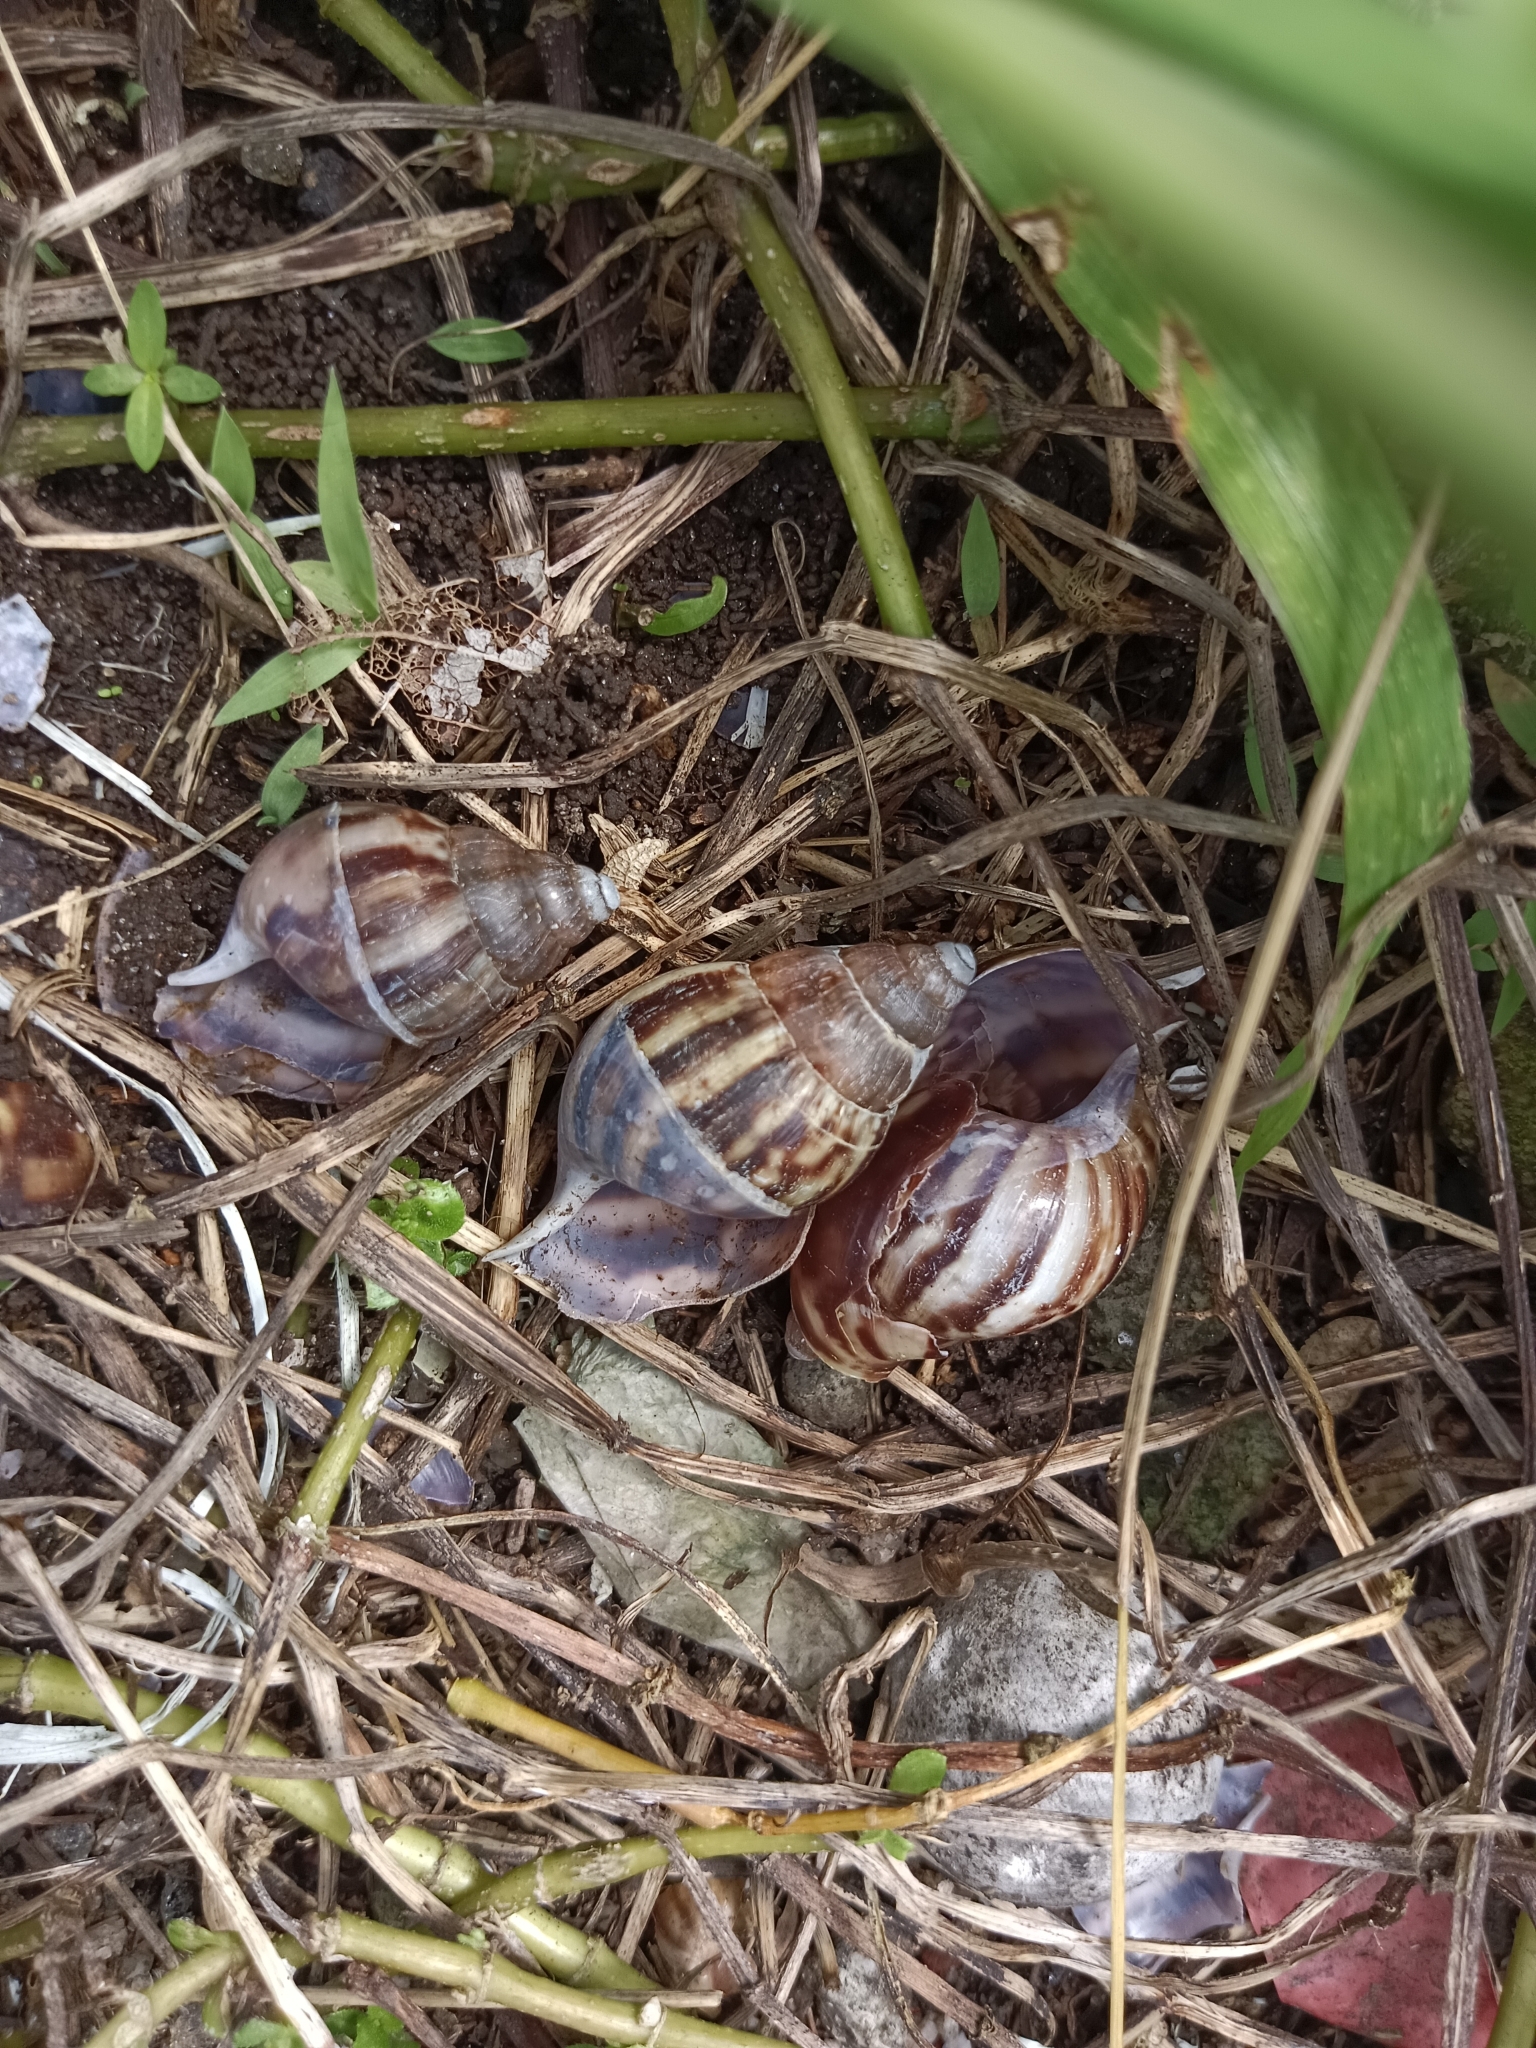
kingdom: Animalia
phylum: Mollusca
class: Gastropoda
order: Stylommatophora
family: Achatinidae
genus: Lissachatina
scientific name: Lissachatina fulica
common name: Giant african snail
